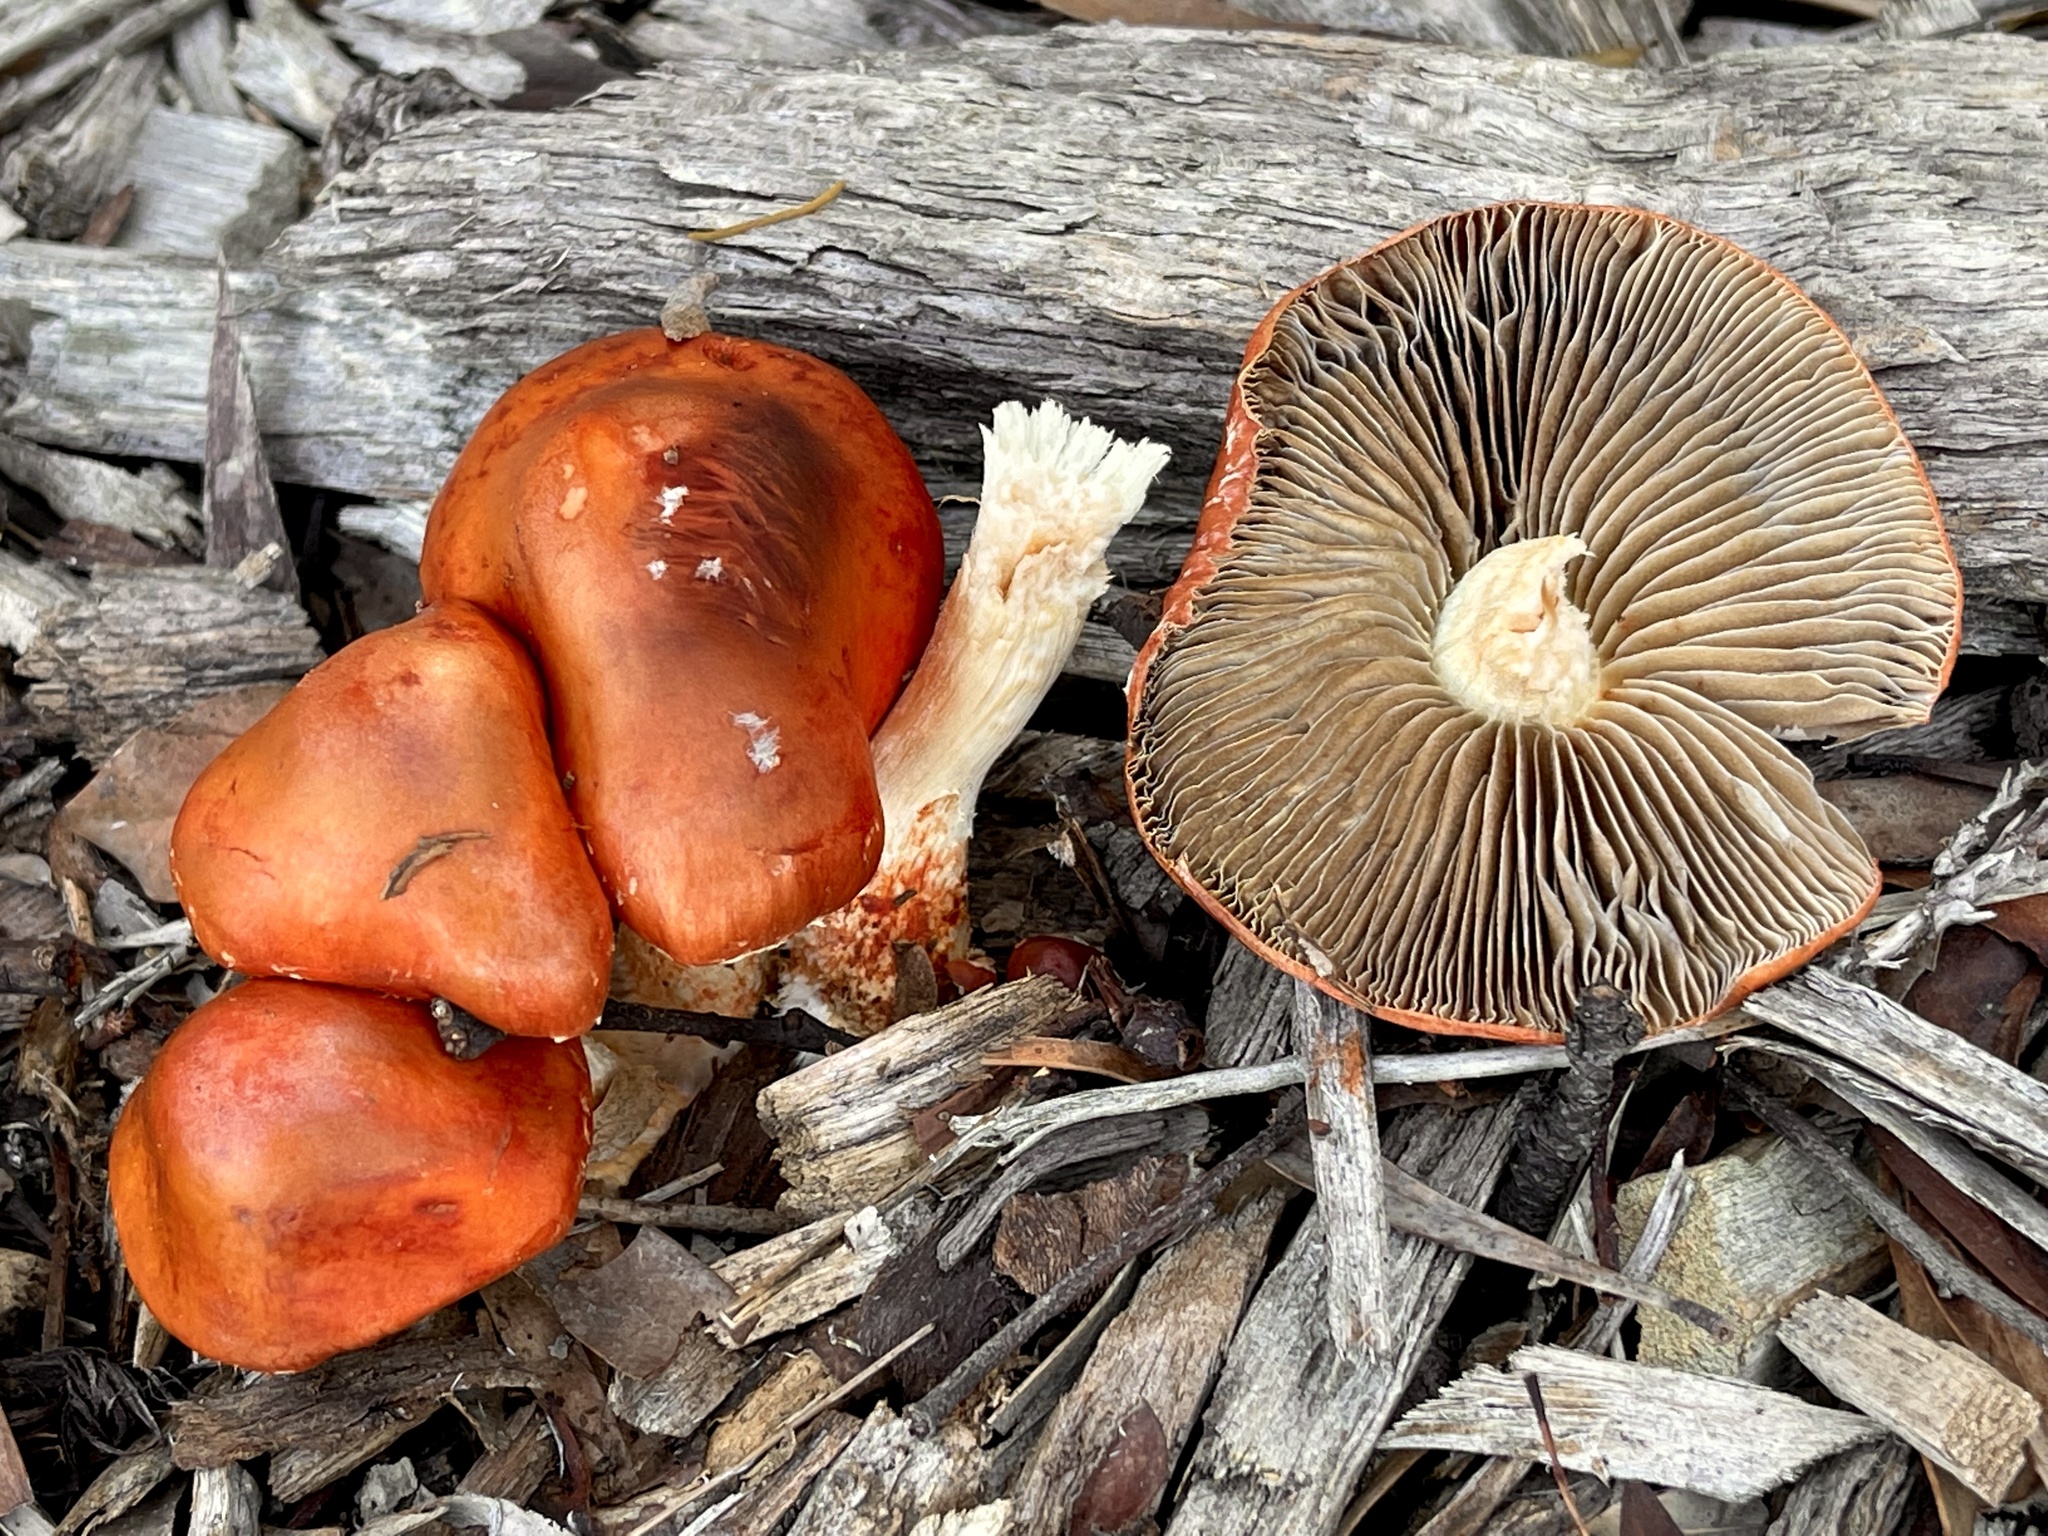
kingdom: Fungi
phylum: Basidiomycota
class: Agaricomycetes
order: Agaricales
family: Strophariaceae
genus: Leratiomyces
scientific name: Leratiomyces ceres
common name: Redlead roundhead
